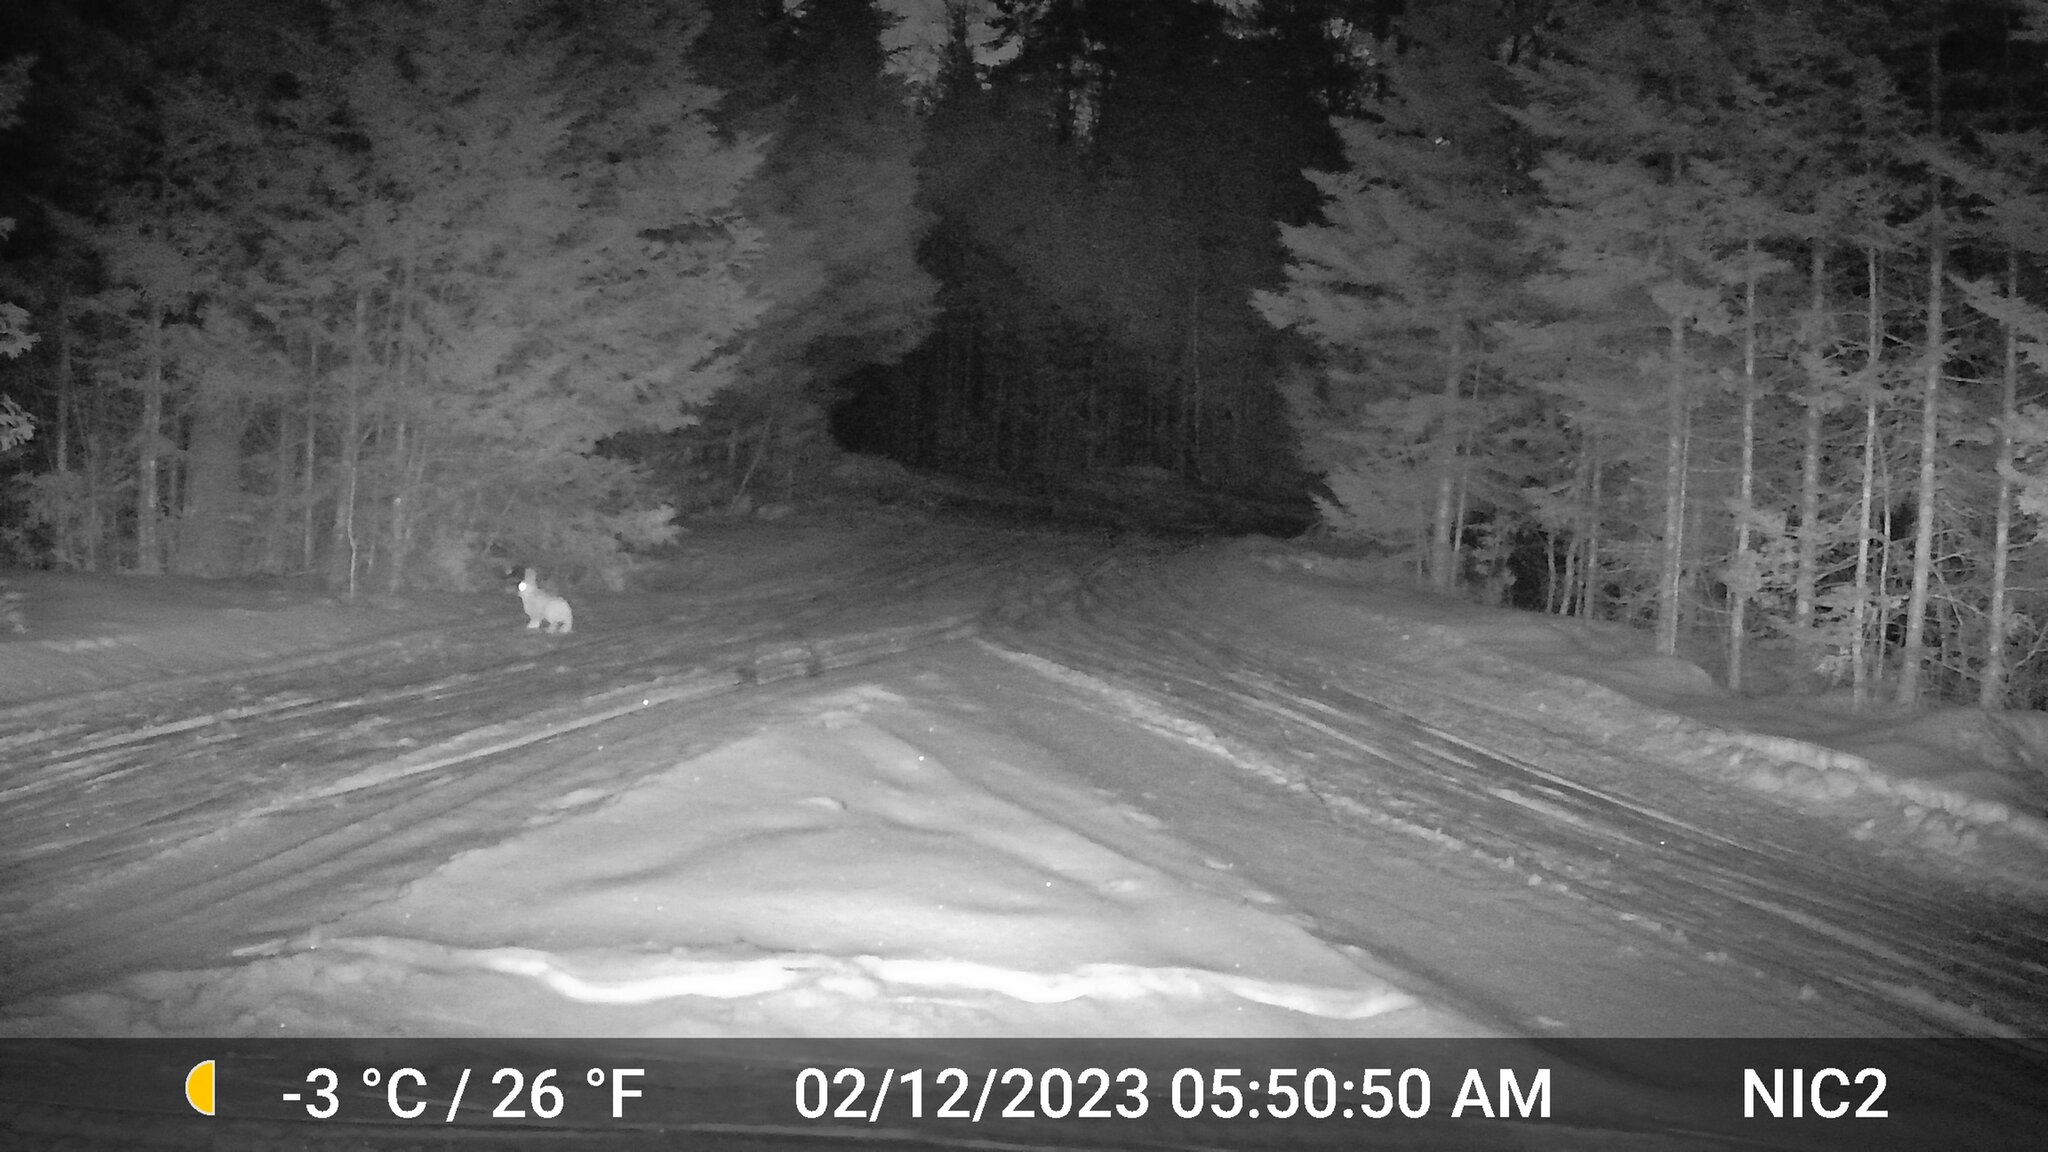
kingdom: Animalia
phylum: Chordata
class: Mammalia
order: Lagomorpha
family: Leporidae
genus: Lepus
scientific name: Lepus americanus
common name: Snowshoe hare
